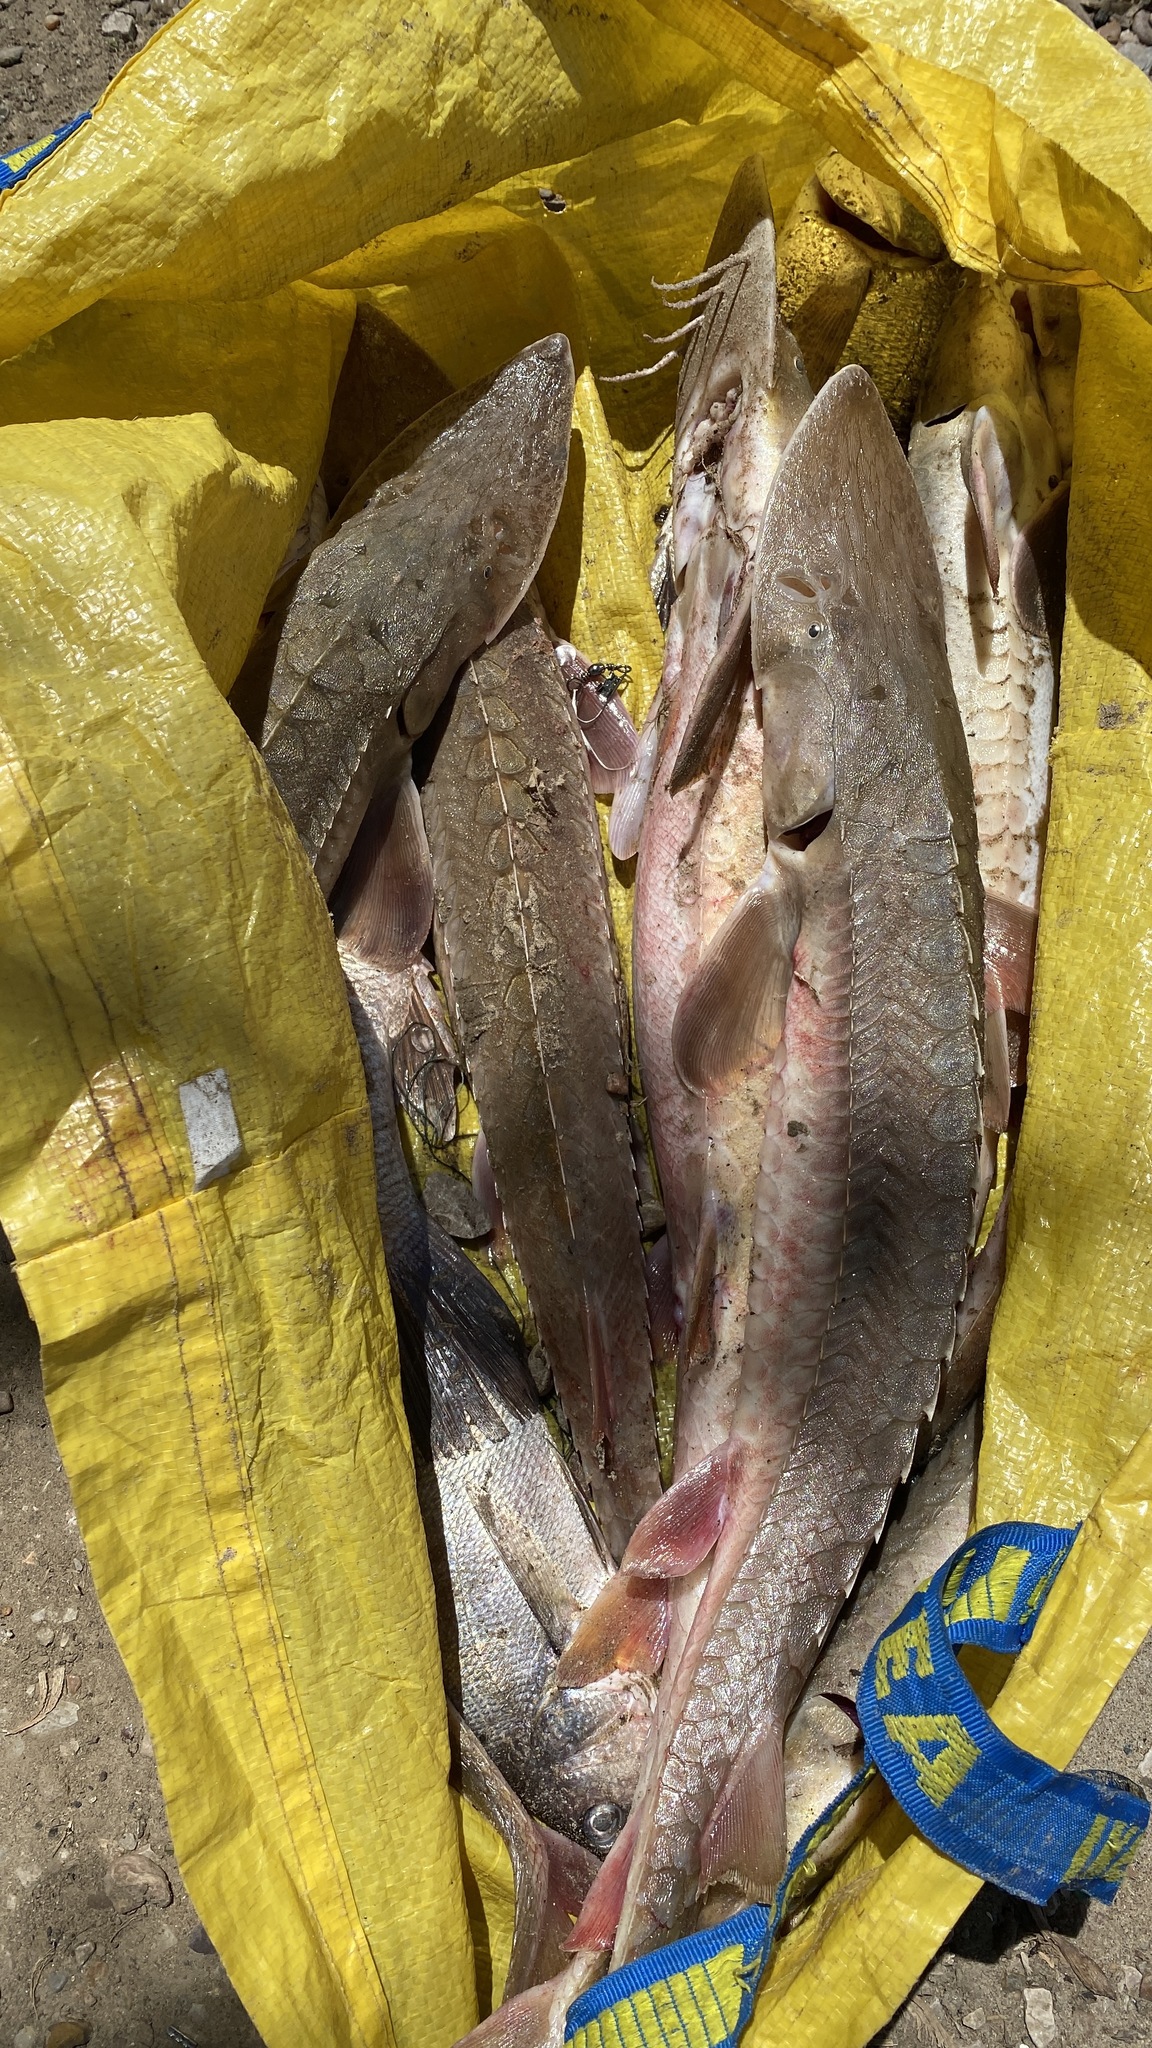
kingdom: Animalia
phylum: Chordata
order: Acipenseriformes
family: Acipenseridae
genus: Scaphirhynchus
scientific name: Scaphirhynchus platorynchus
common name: Shovelnose sturgeon
